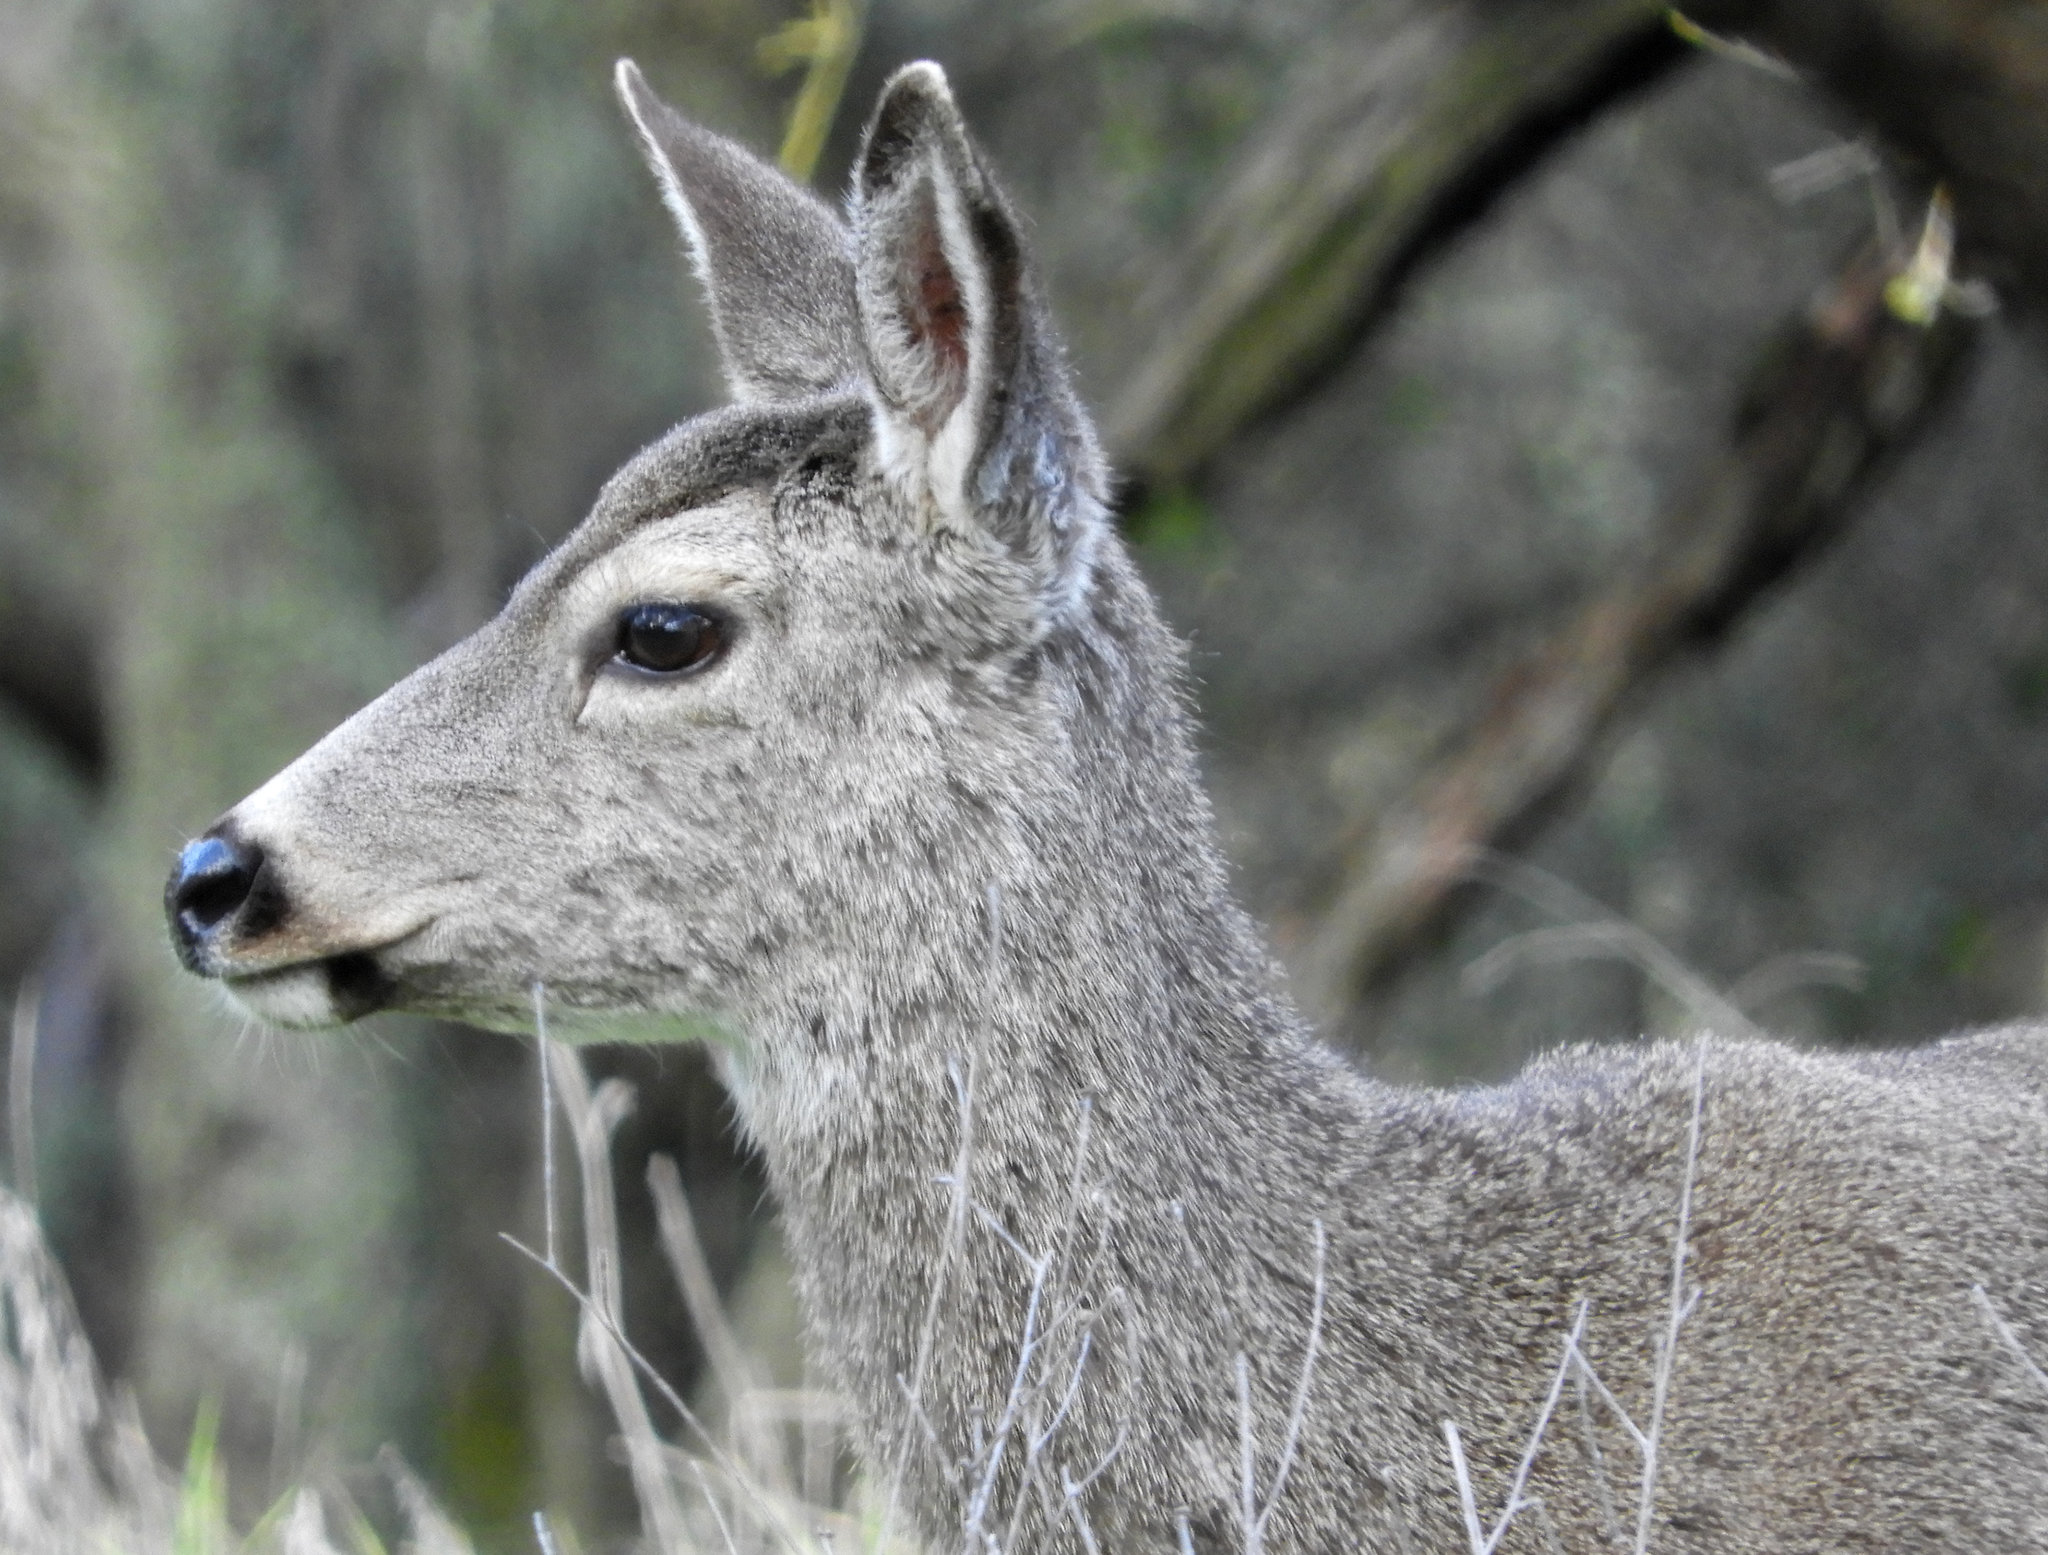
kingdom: Animalia
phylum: Chordata
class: Mammalia
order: Artiodactyla
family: Cervidae
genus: Odocoileus
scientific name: Odocoileus hemionus
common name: Mule deer
